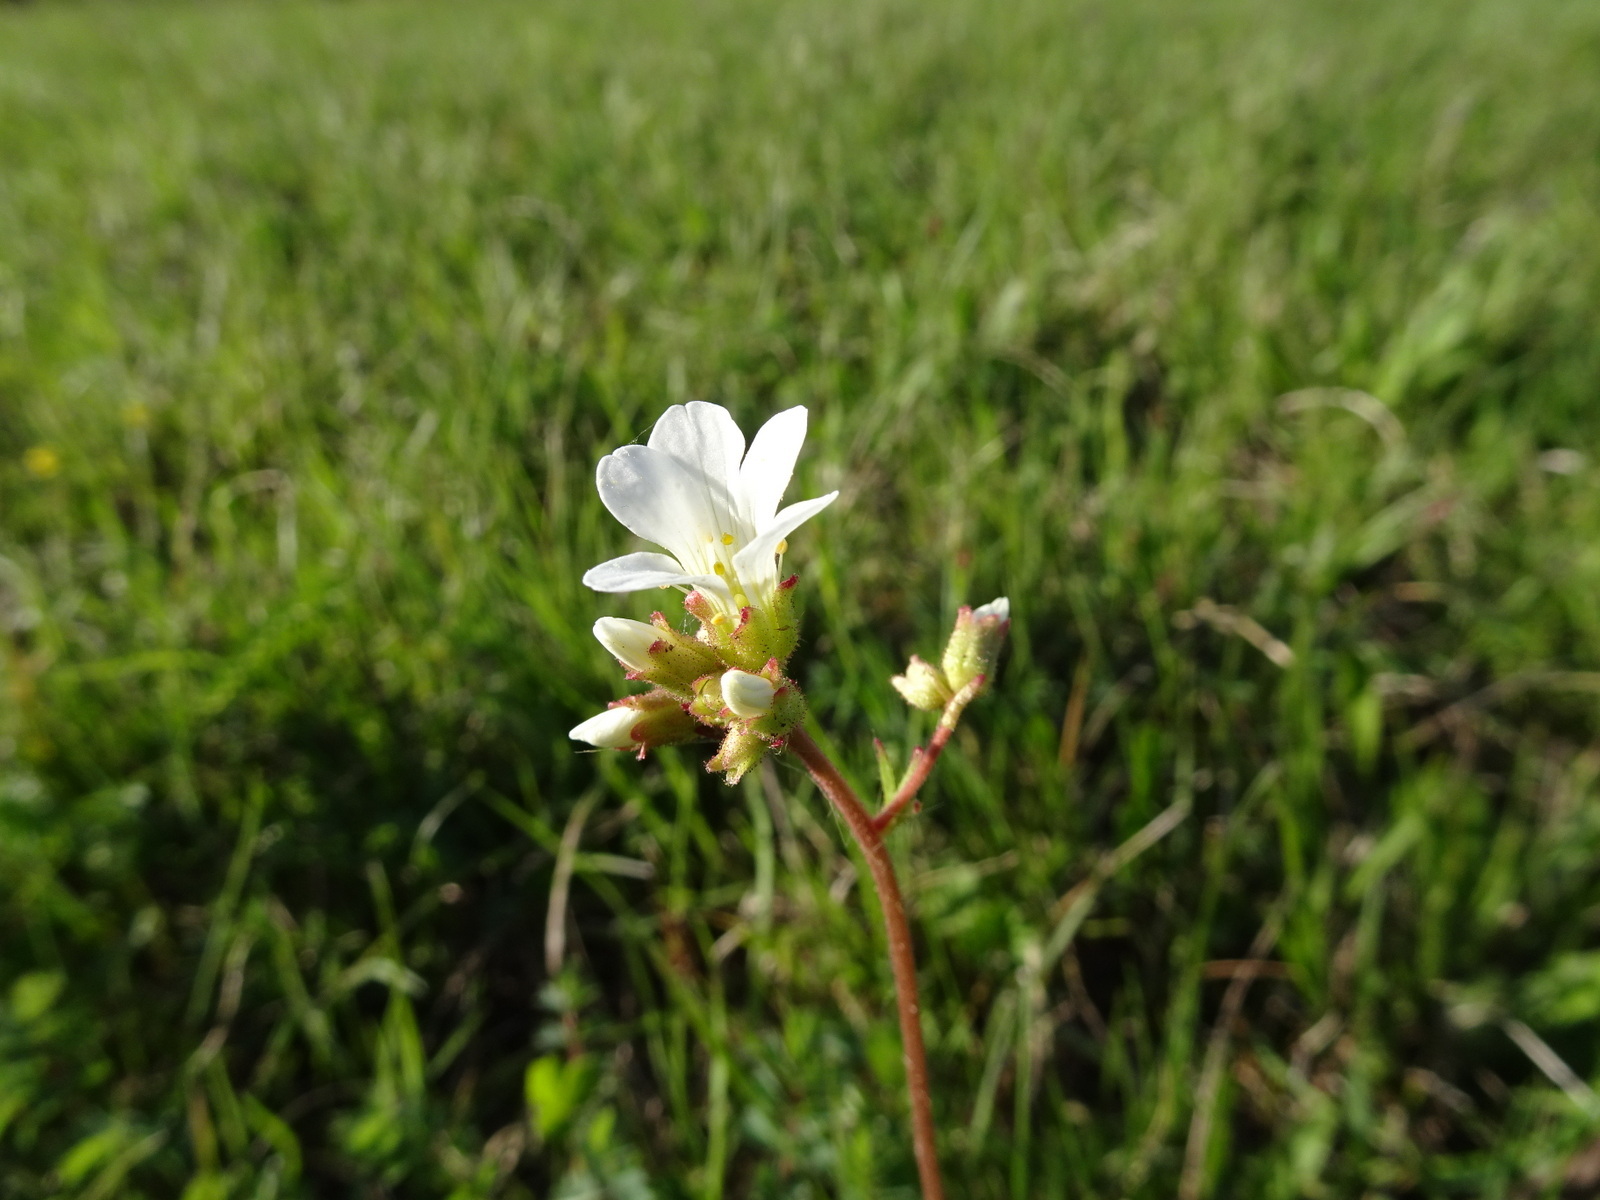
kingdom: Plantae
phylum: Tracheophyta
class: Magnoliopsida
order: Saxifragales
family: Saxifragaceae
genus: Saxifraga
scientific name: Saxifraga granulata
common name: Meadow saxifrage
